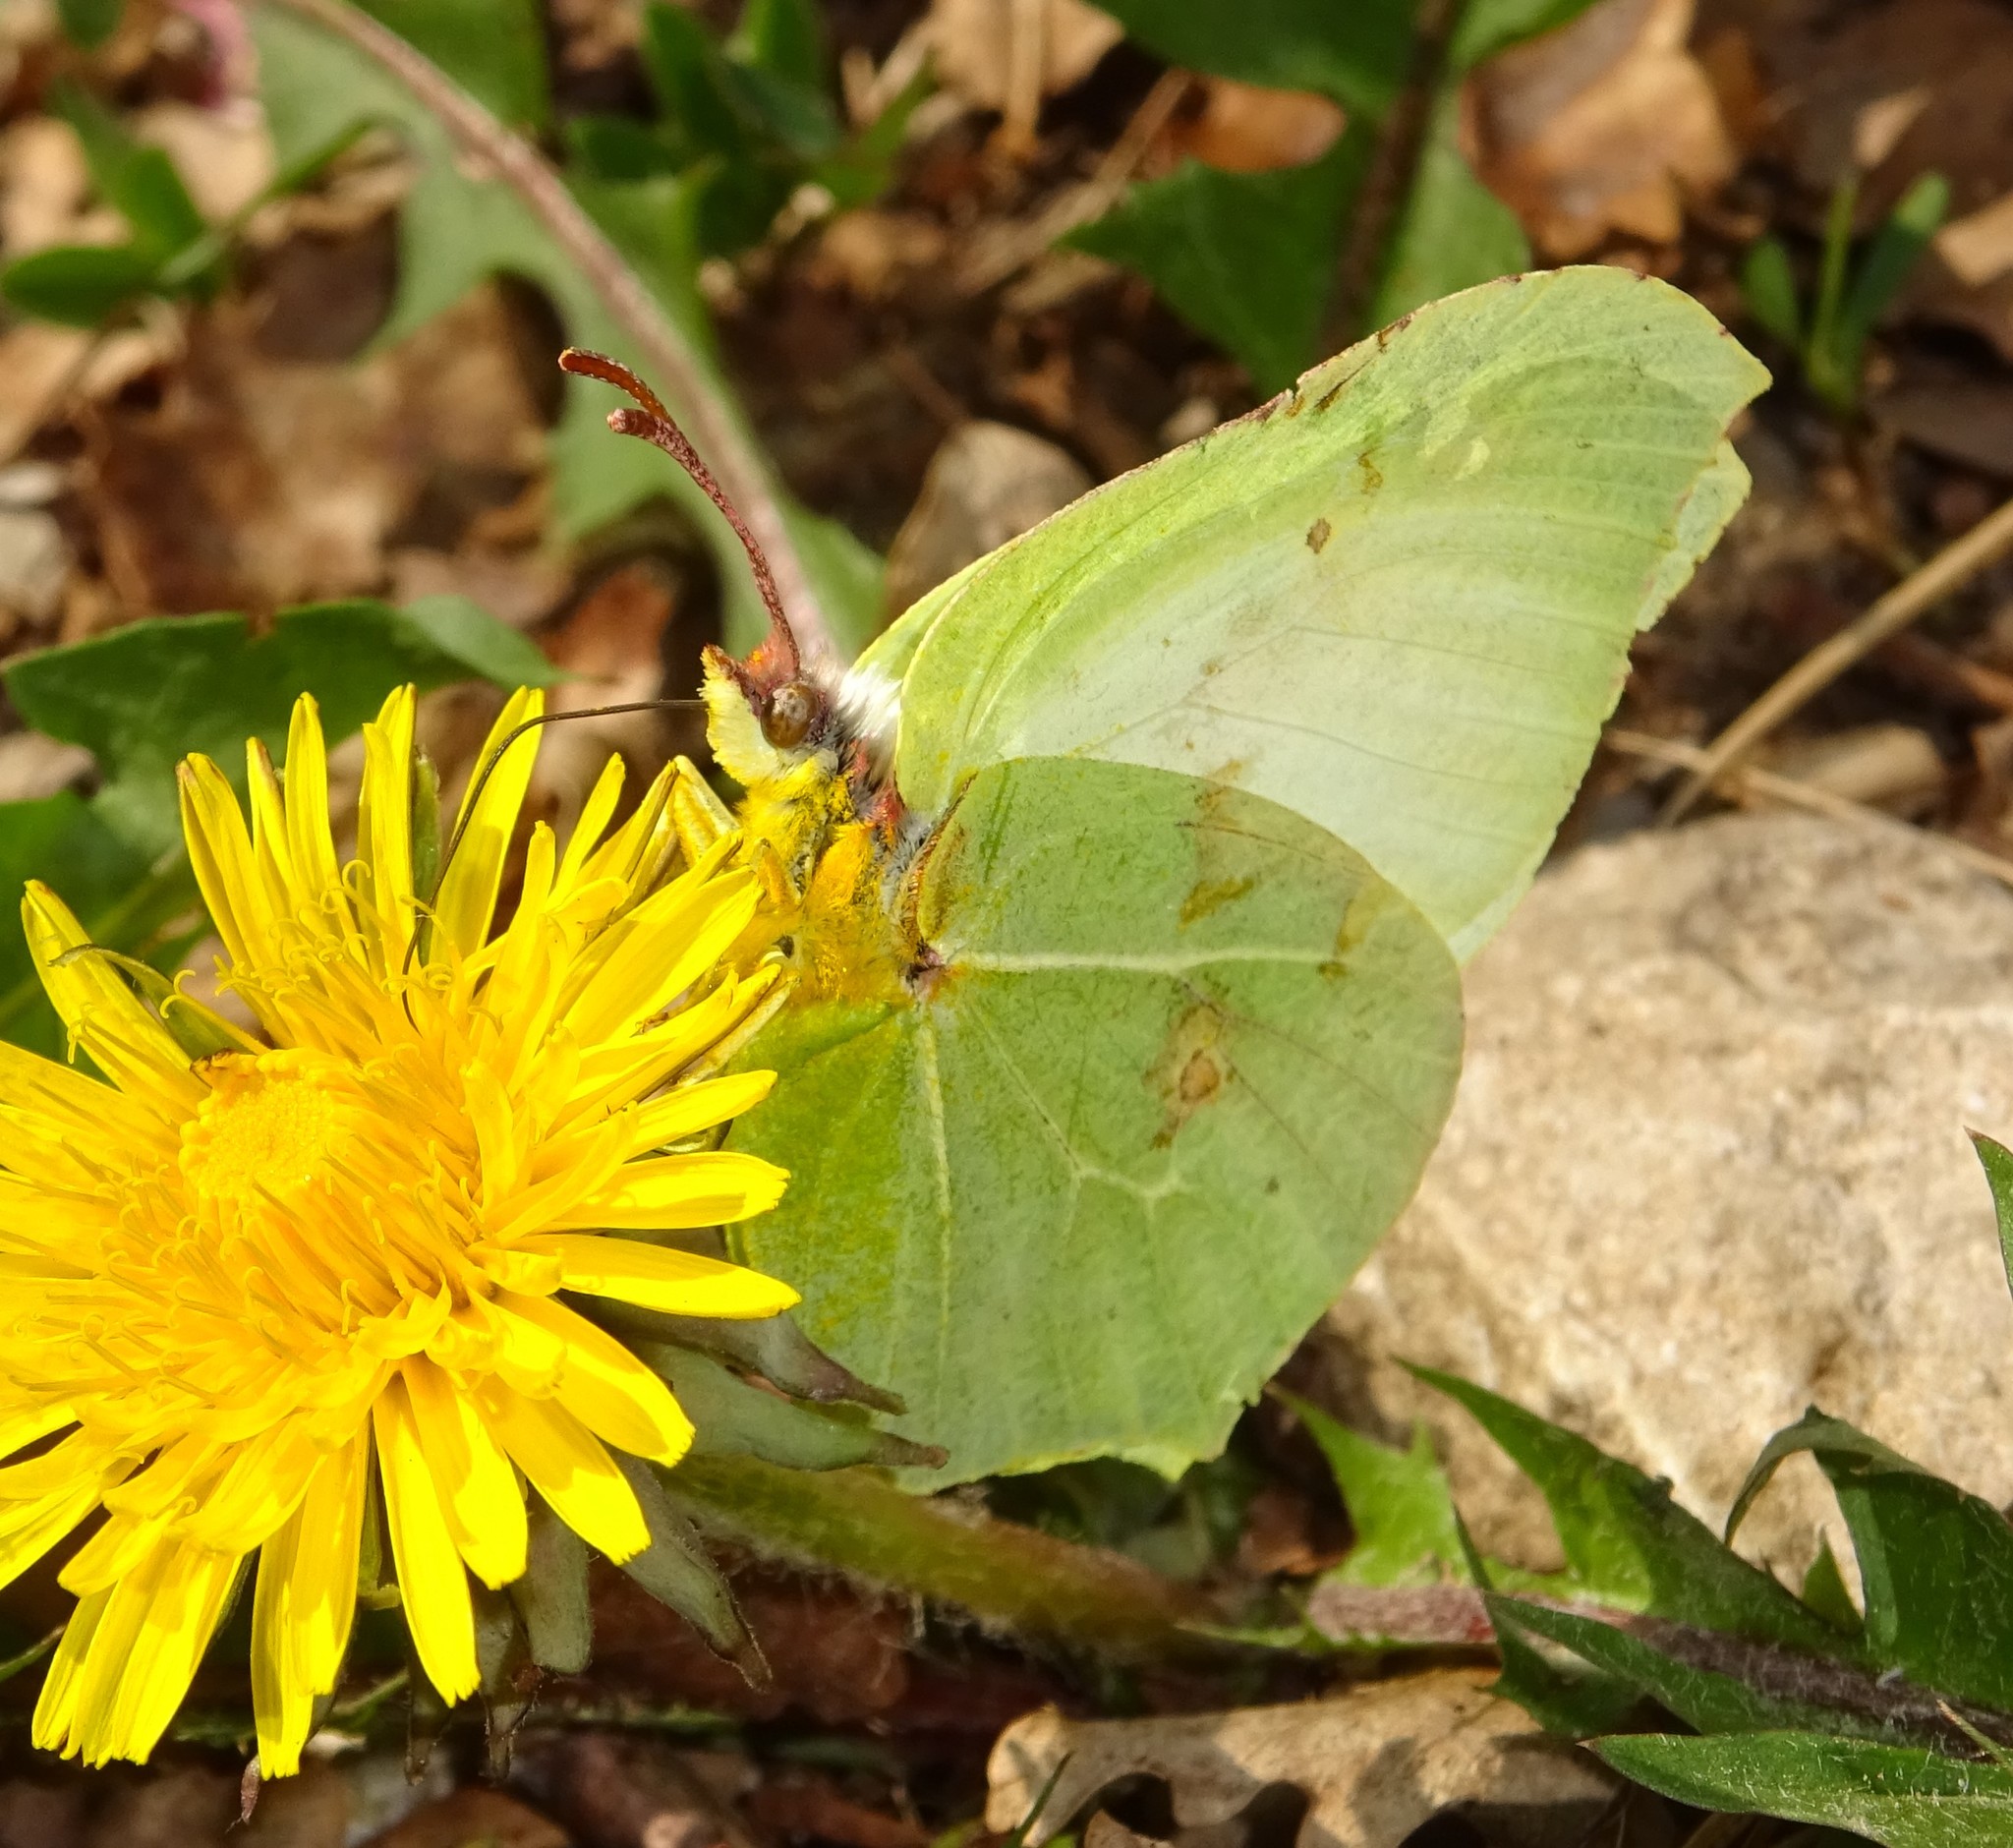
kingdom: Animalia
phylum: Arthropoda
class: Insecta
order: Lepidoptera
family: Pieridae
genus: Gonepteryx
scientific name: Gonepteryx rhamni
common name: Brimstone
